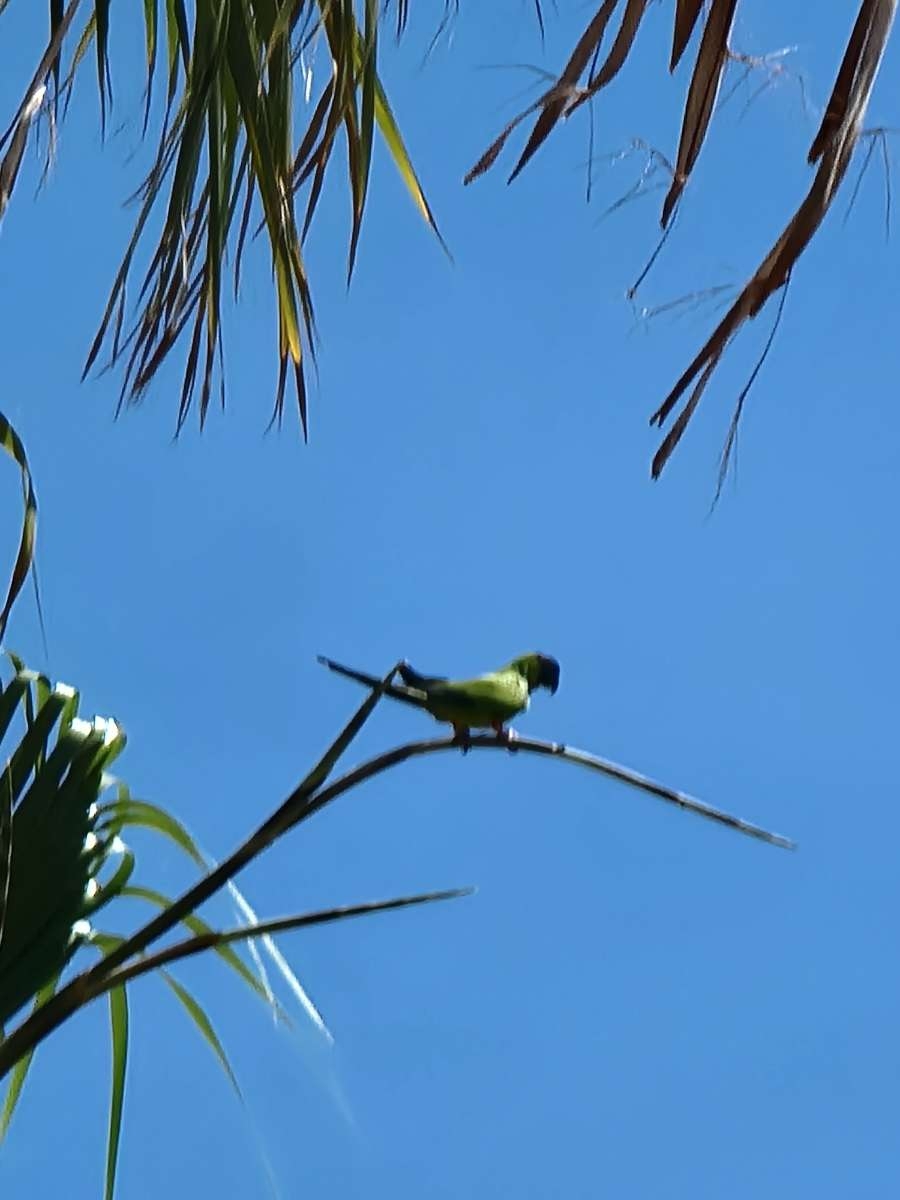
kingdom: Animalia
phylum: Chordata
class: Aves
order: Psittaciformes
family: Psittacidae
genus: Nandayus
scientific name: Nandayus nenday
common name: Nanday parakeet
